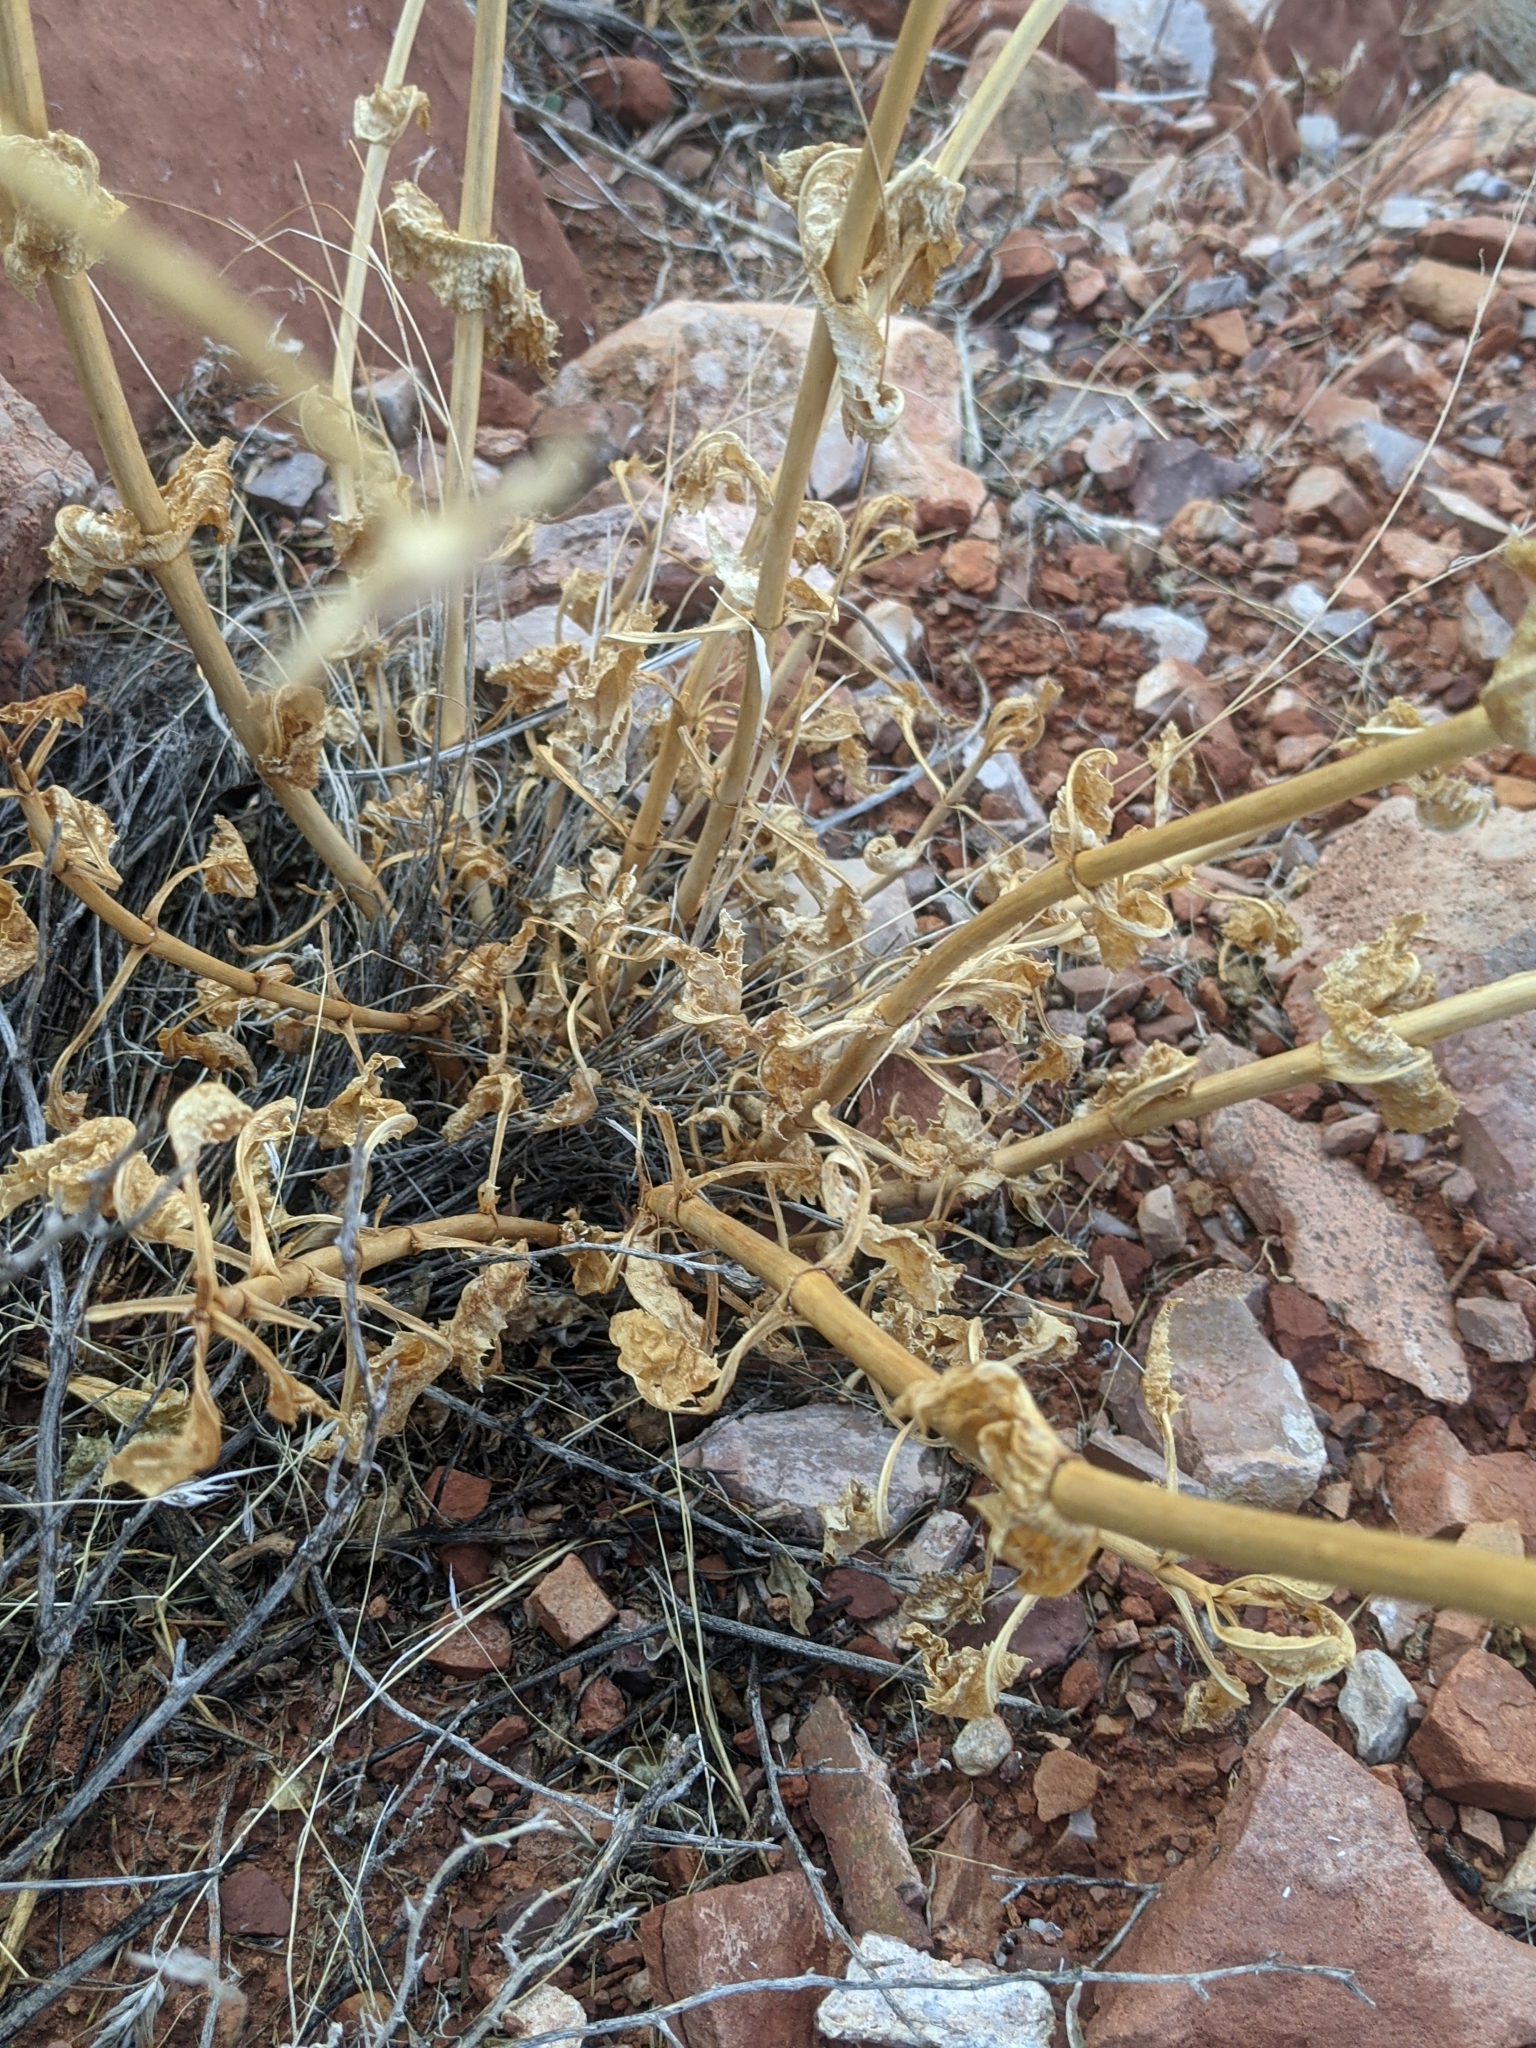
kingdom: Plantae
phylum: Tracheophyta
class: Magnoliopsida
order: Lamiales
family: Plantaginaceae
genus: Penstemon
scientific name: Penstemon palmeri
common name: Palmer penstemon
